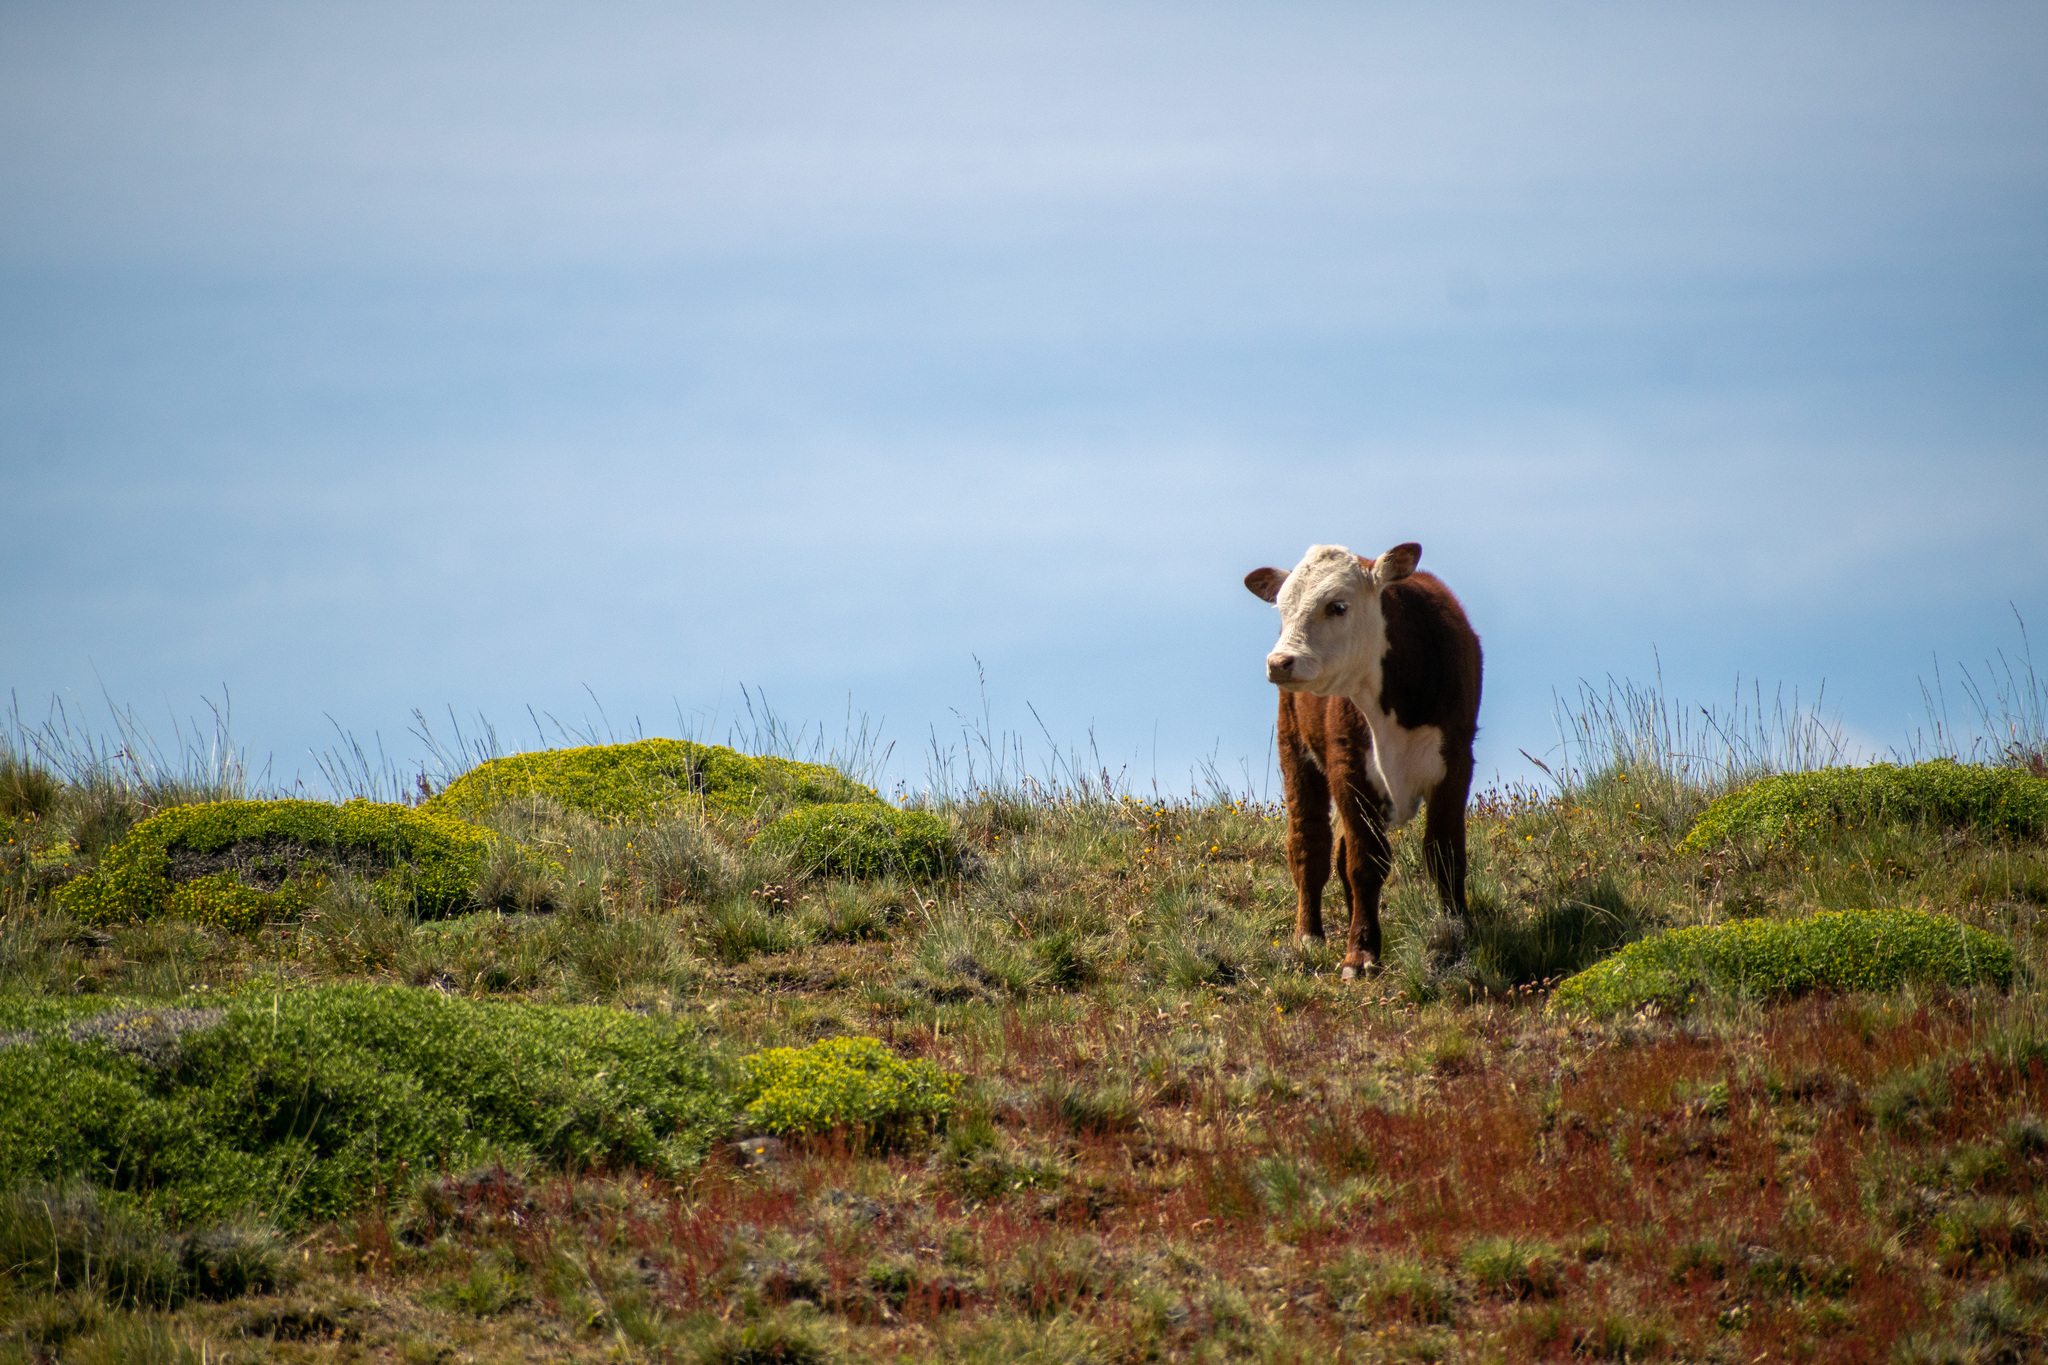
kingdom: Animalia
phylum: Chordata
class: Mammalia
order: Artiodactyla
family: Bovidae
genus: Bos
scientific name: Bos taurus
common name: Domesticated cattle
